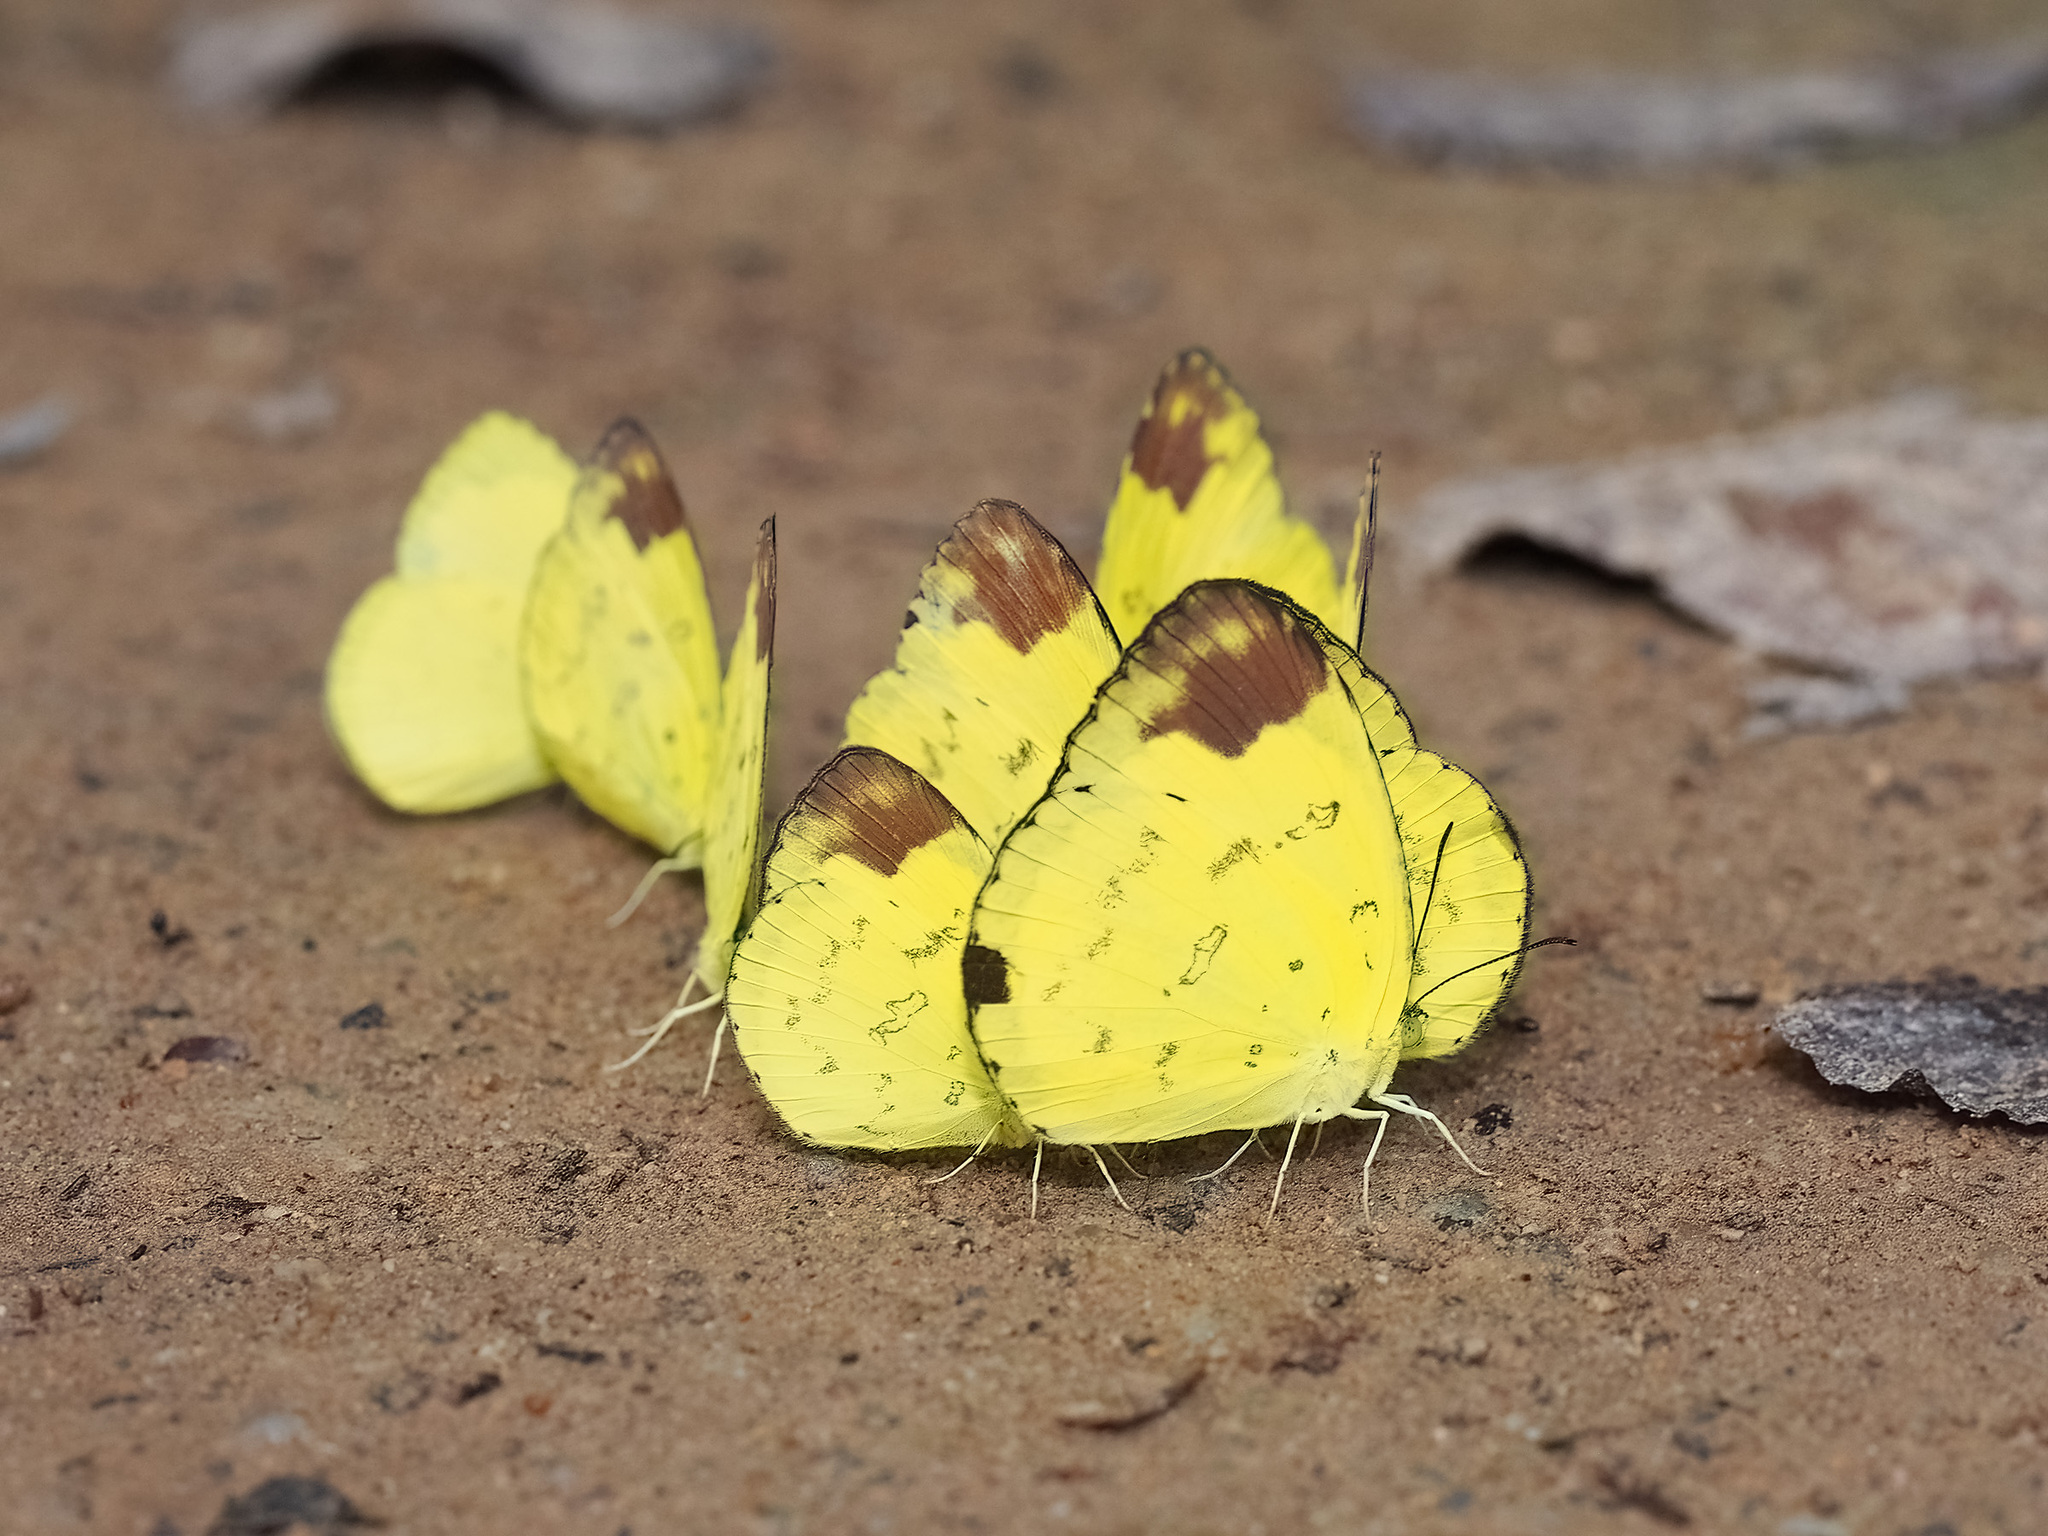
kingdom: Animalia
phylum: Arthropoda
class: Insecta
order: Lepidoptera
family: Pieridae
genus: Eurema
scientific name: Eurema simulatrix
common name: Hill grass yellow
